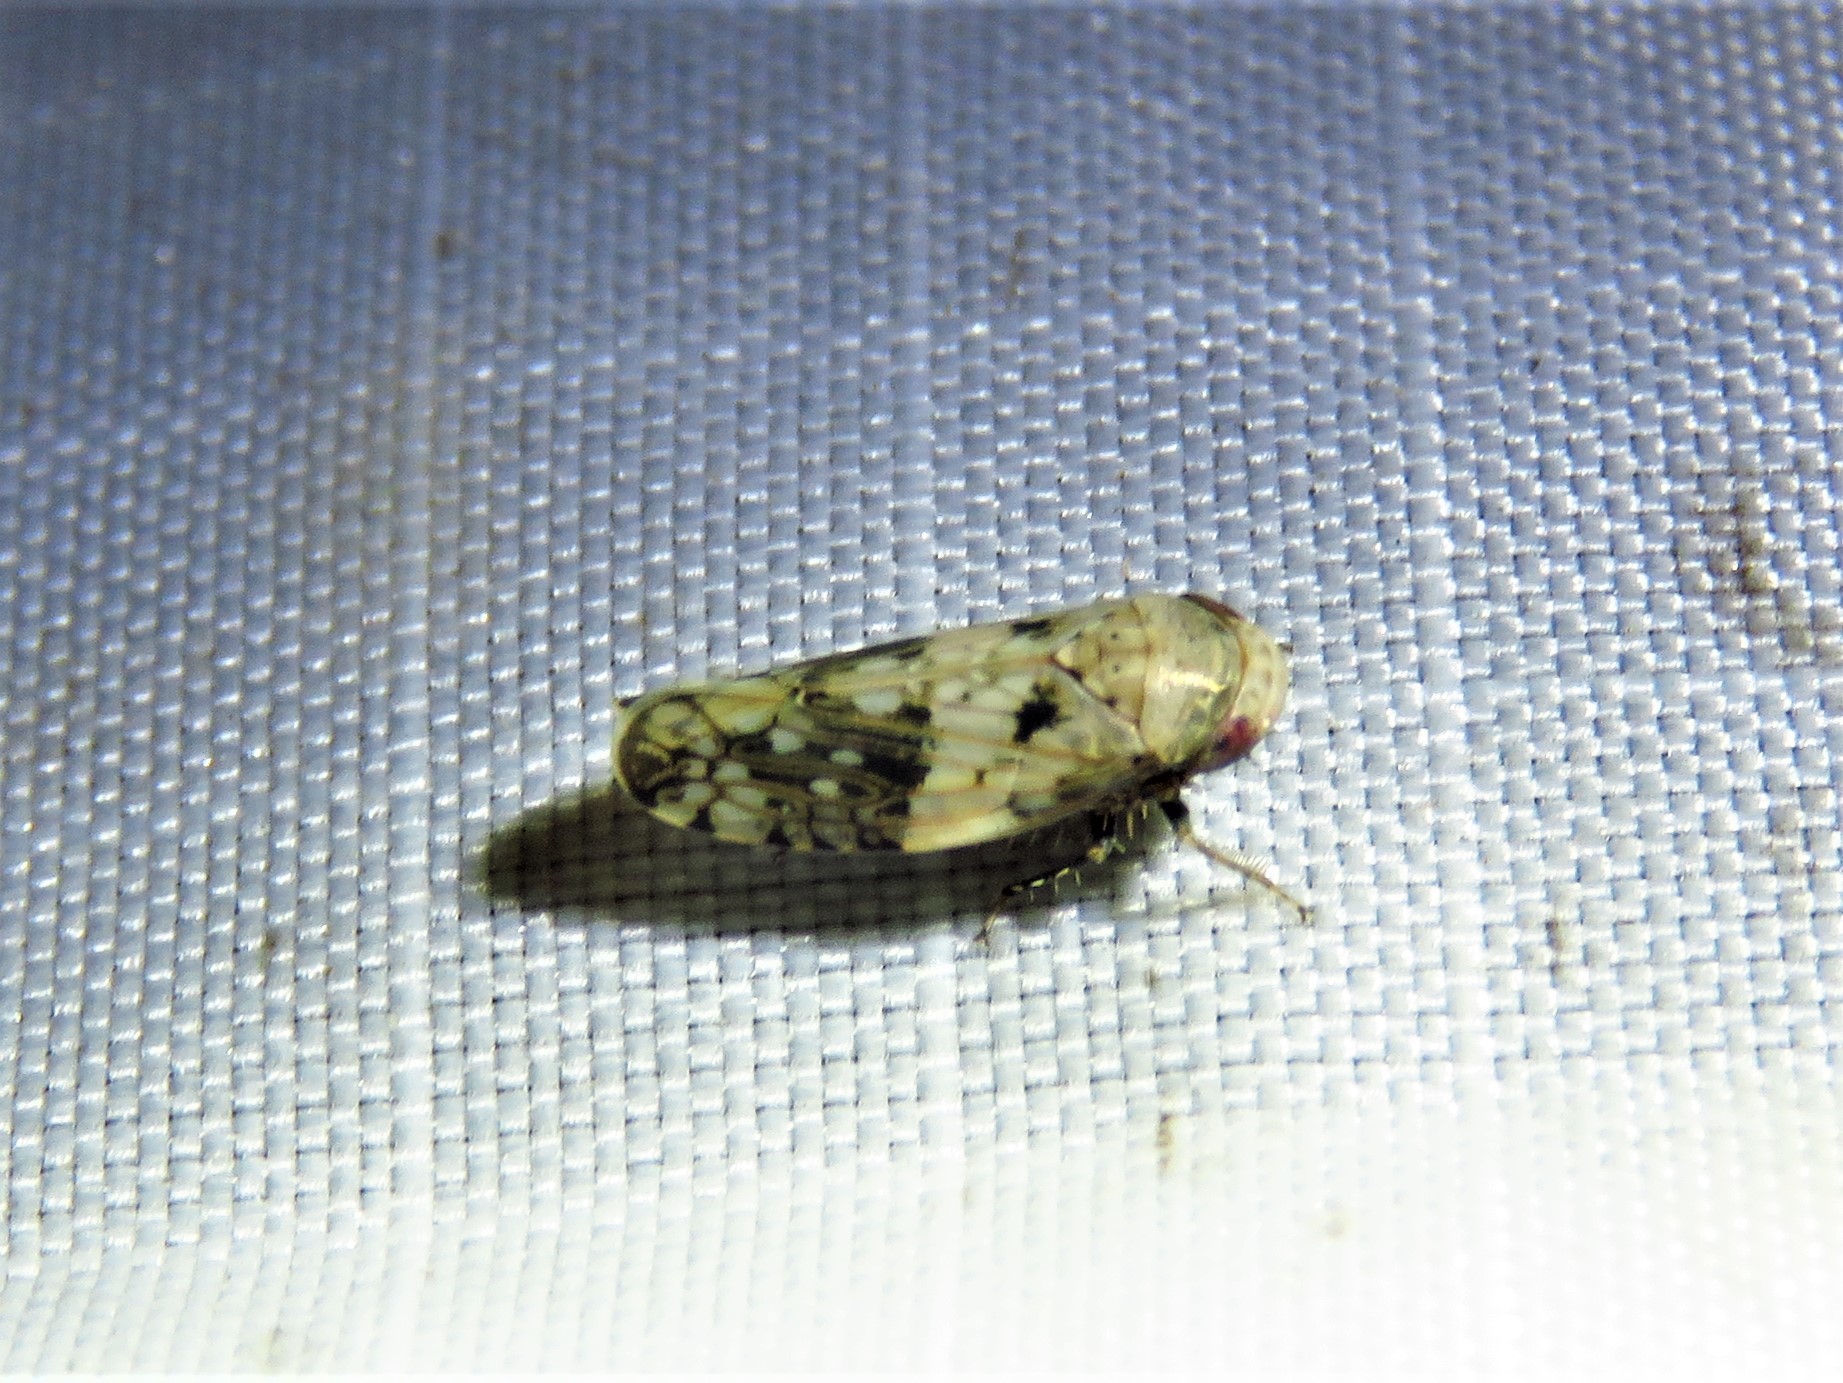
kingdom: Animalia
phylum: Arthropoda
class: Insecta
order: Hemiptera
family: Cicadellidae
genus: Menosoma
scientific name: Menosoma cinctum
